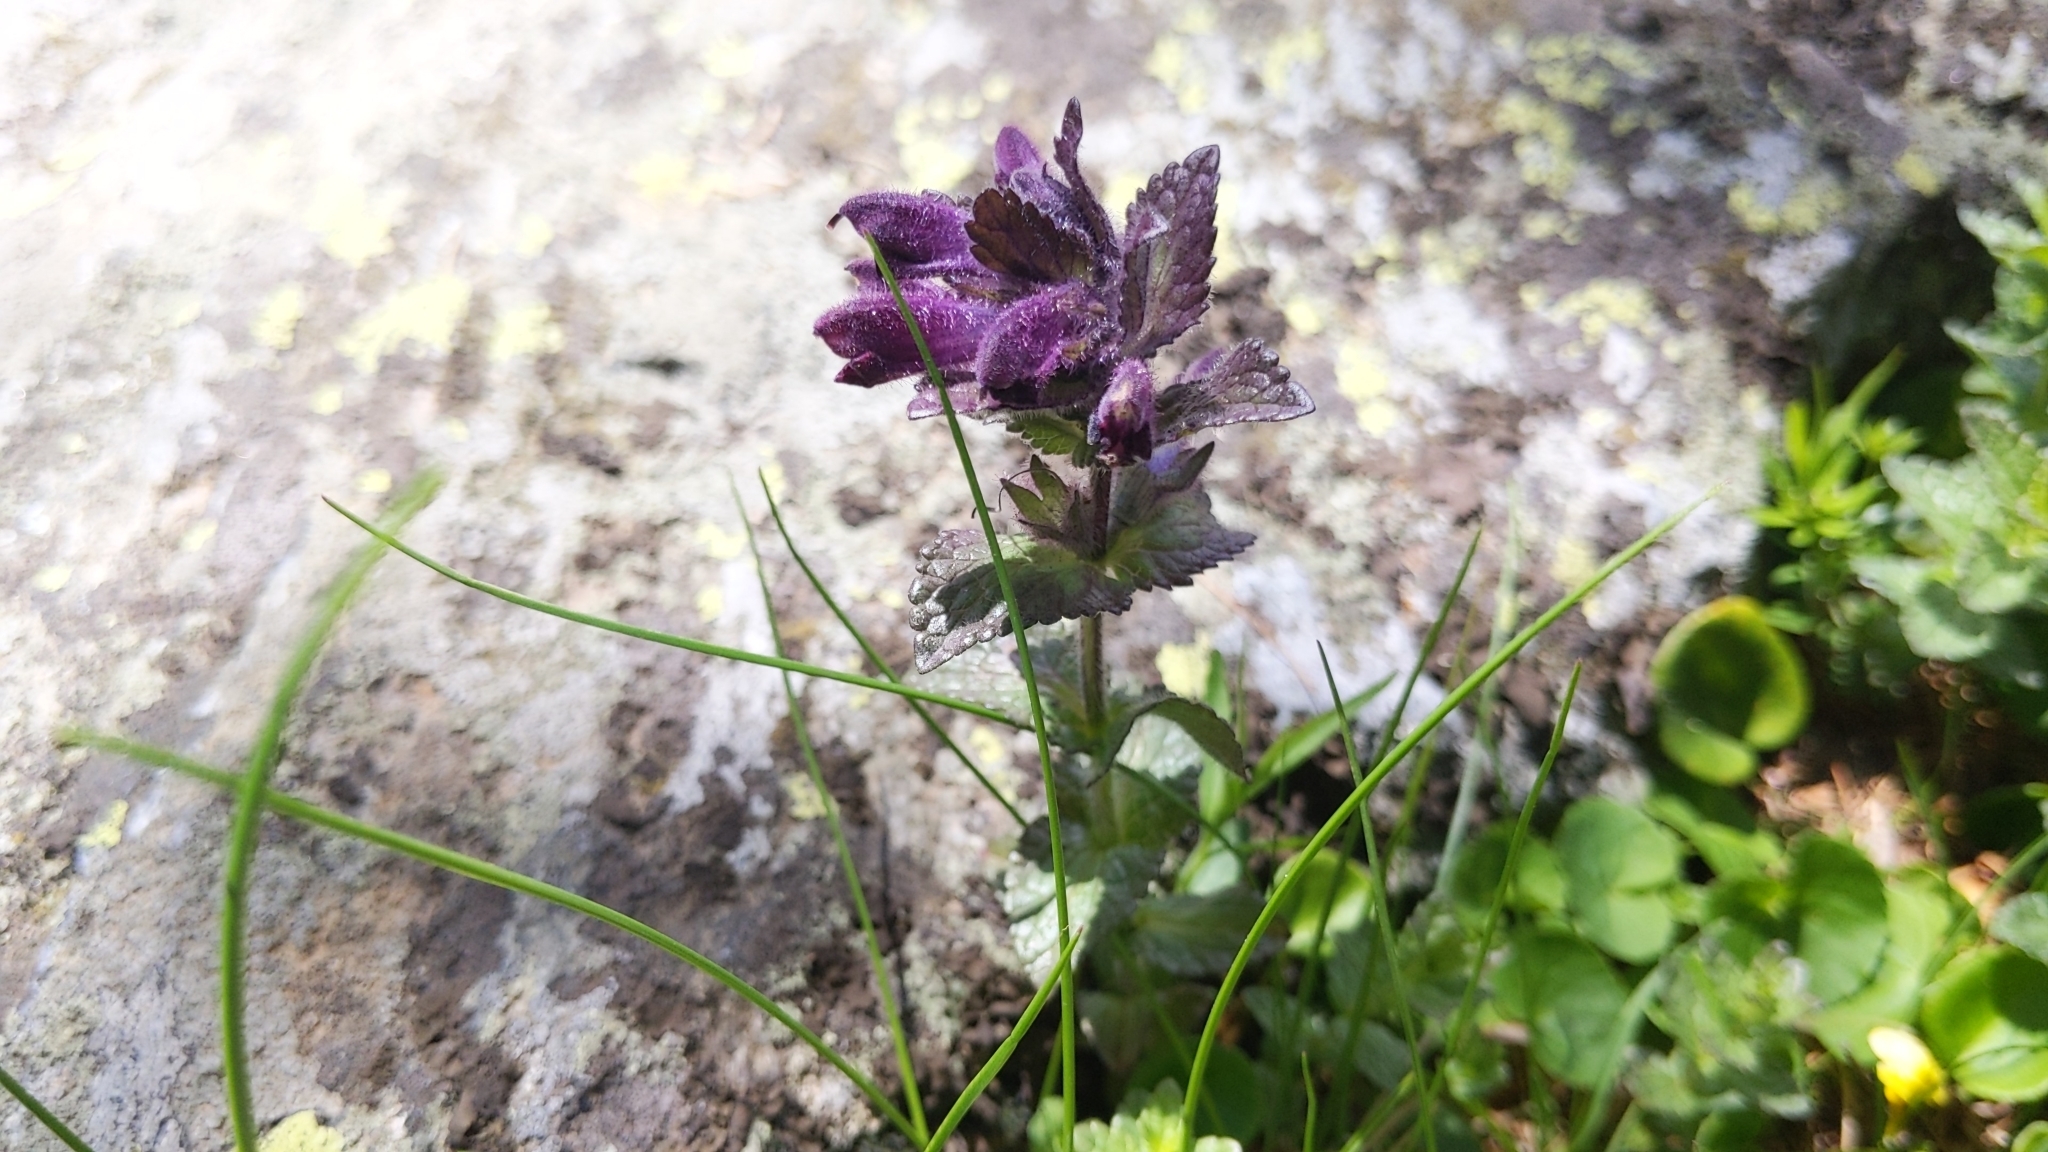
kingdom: Plantae
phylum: Tracheophyta
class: Magnoliopsida
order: Lamiales
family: Orobanchaceae
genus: Bartsia
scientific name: Bartsia alpina
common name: Alpine bartsia
